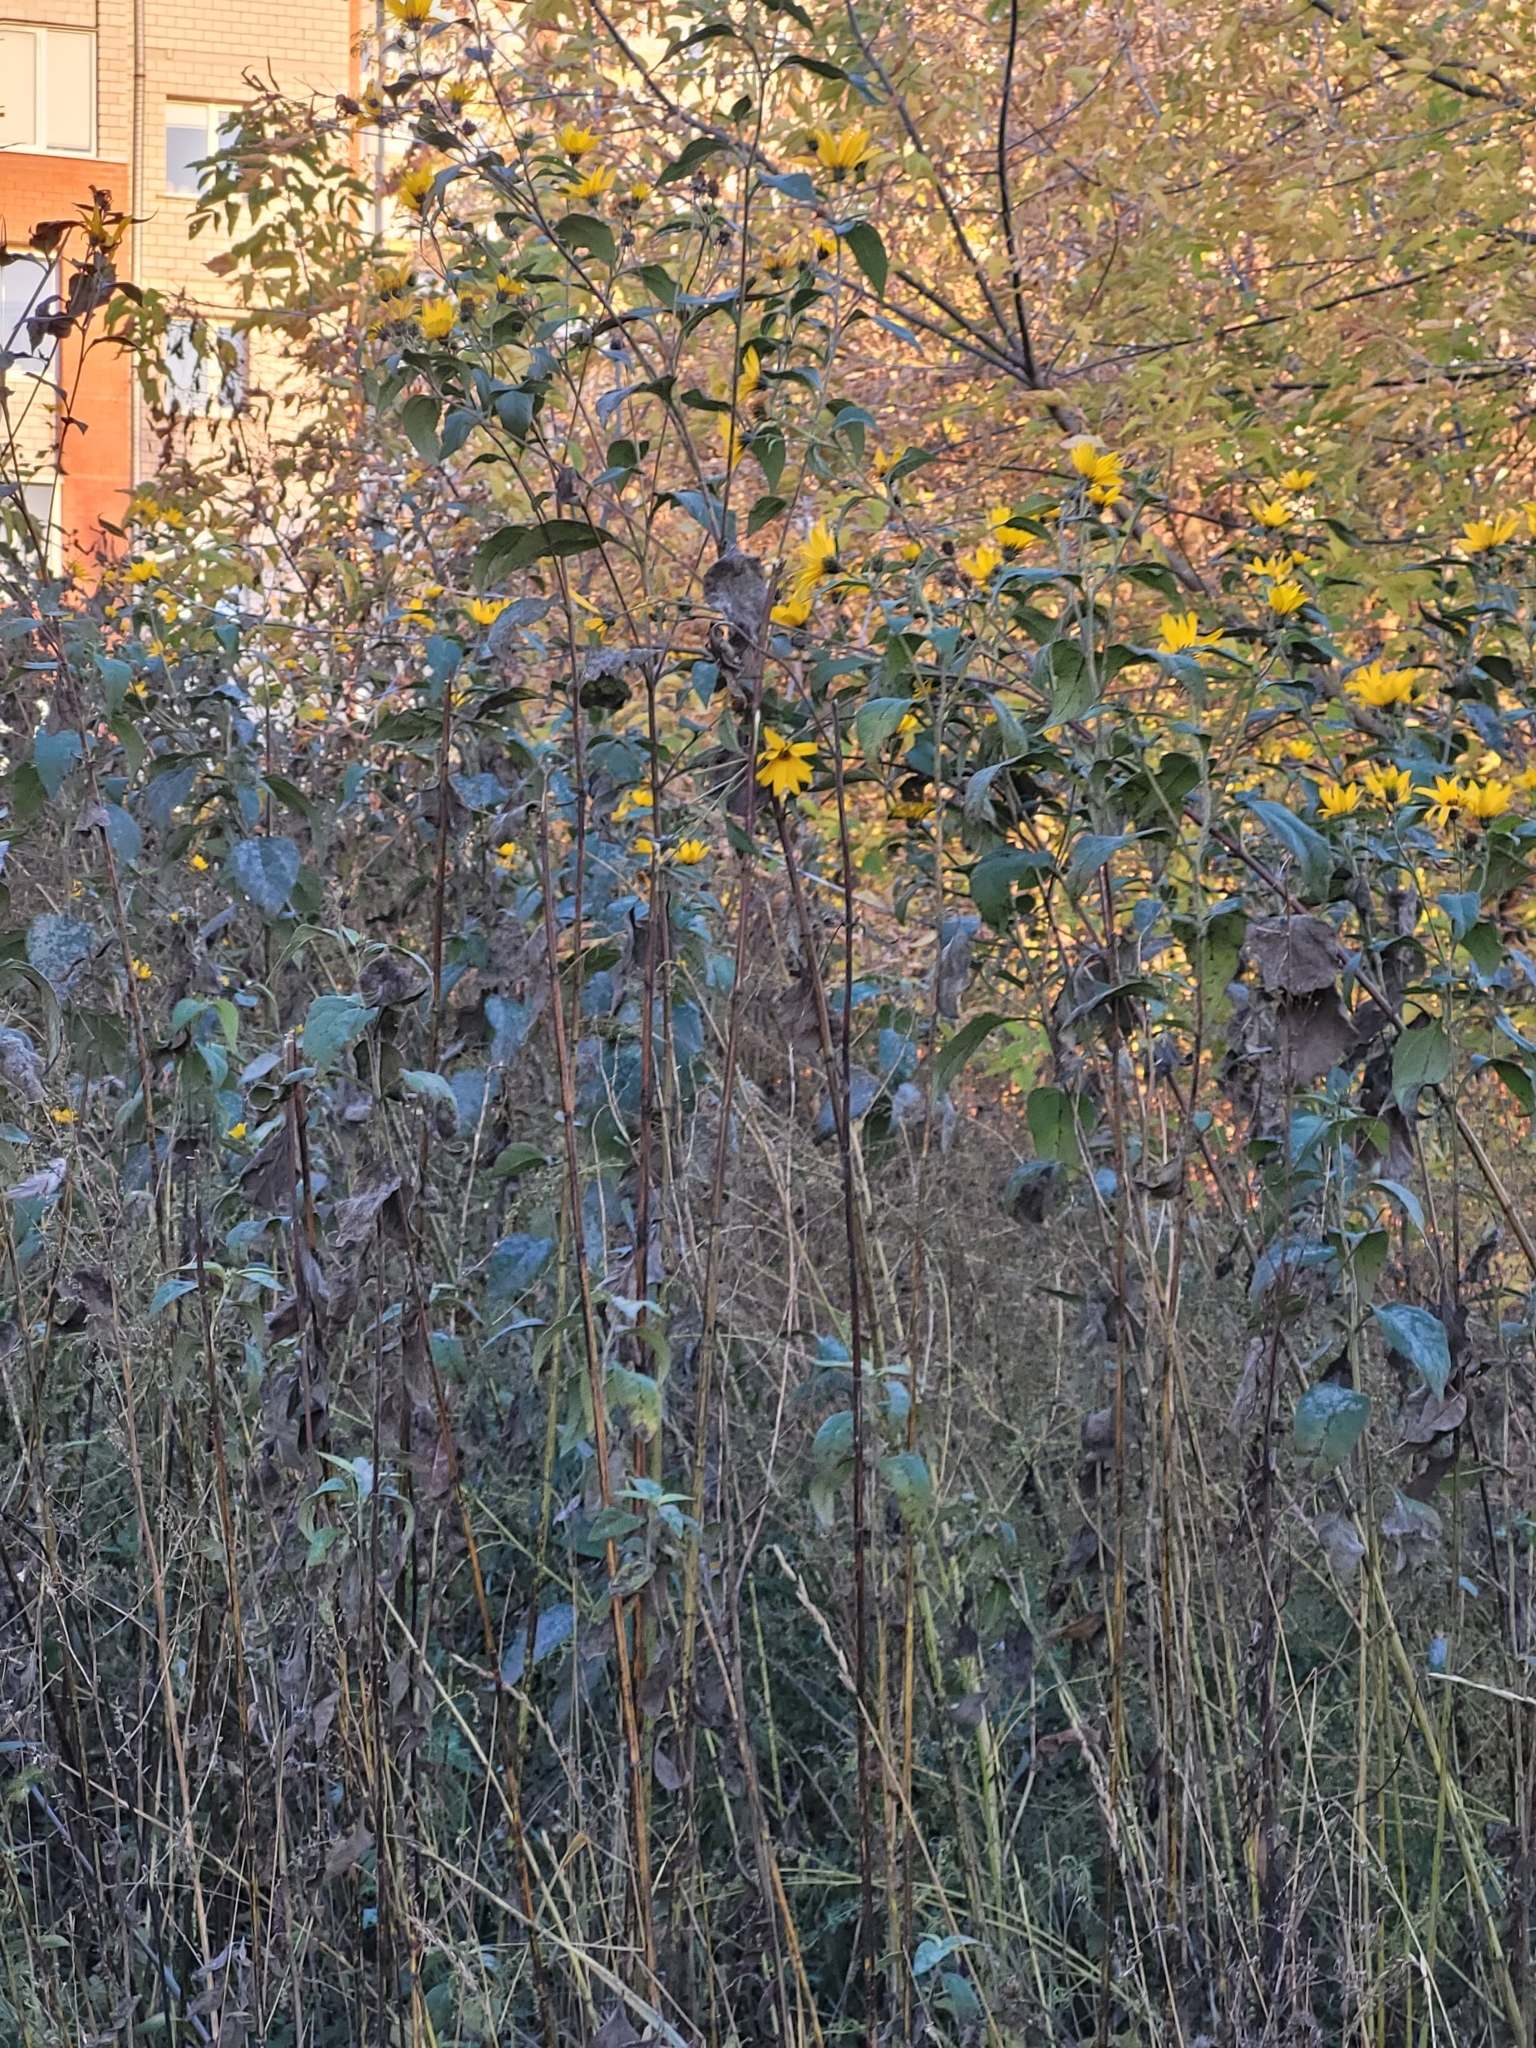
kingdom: Plantae
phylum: Tracheophyta
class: Magnoliopsida
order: Asterales
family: Asteraceae
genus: Helianthus
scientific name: Helianthus tuberosus
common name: Jerusalem artichoke
